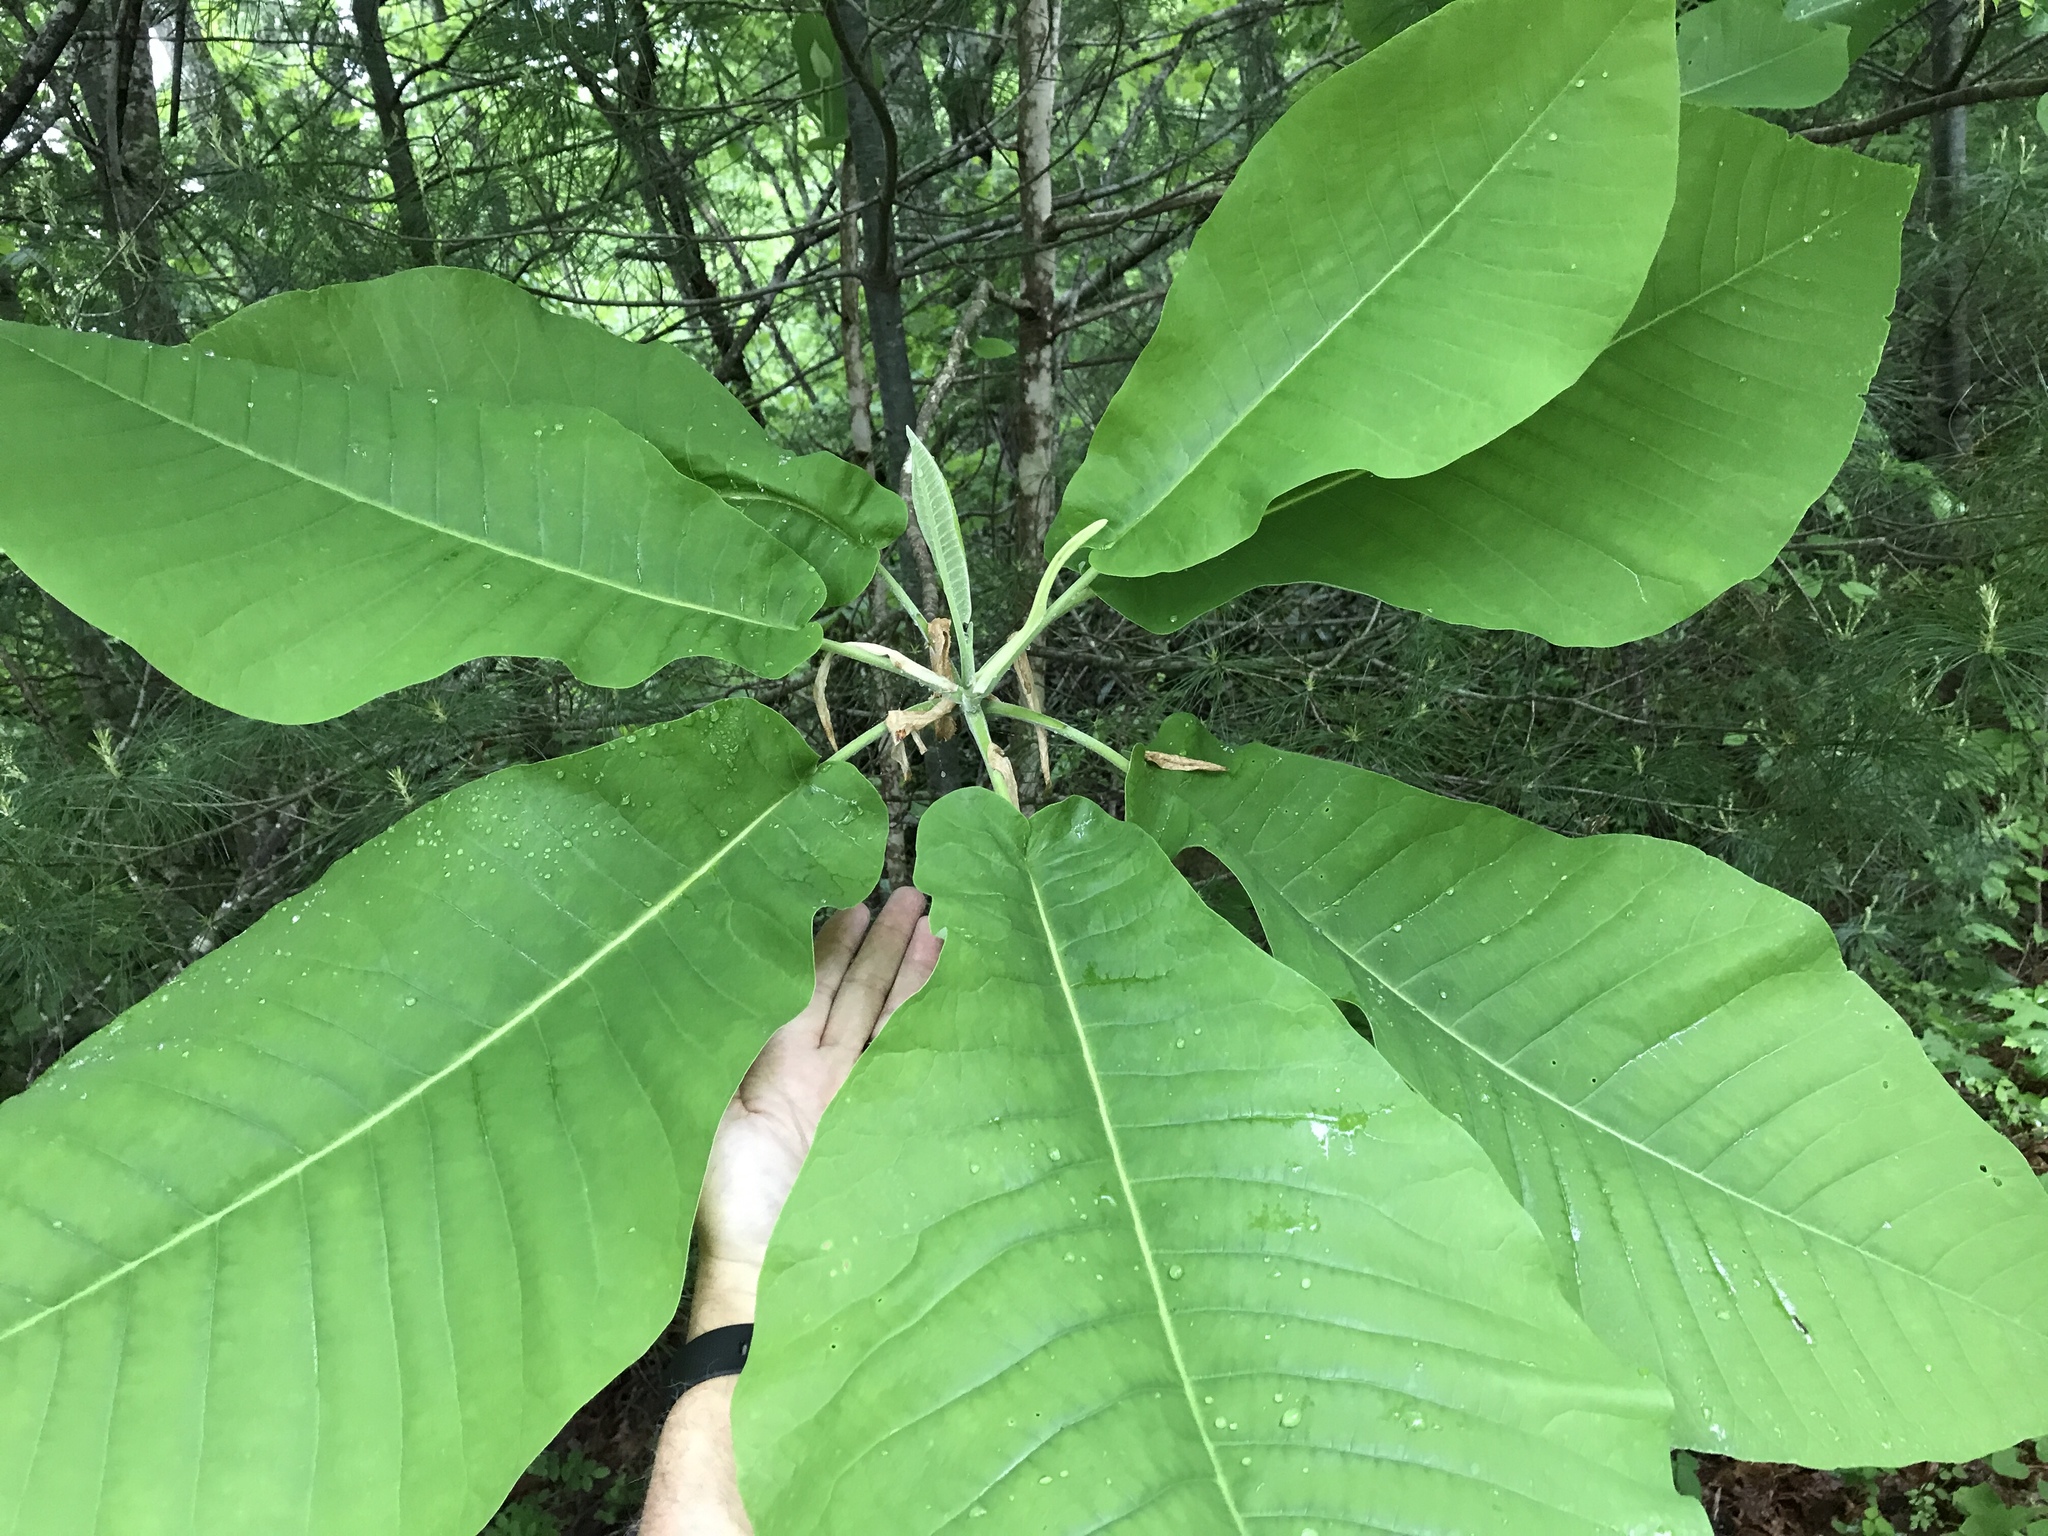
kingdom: Plantae
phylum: Tracheophyta
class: Magnoliopsida
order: Magnoliales
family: Magnoliaceae
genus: Magnolia
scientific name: Magnolia macrophylla
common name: Big-leaf magnolia
